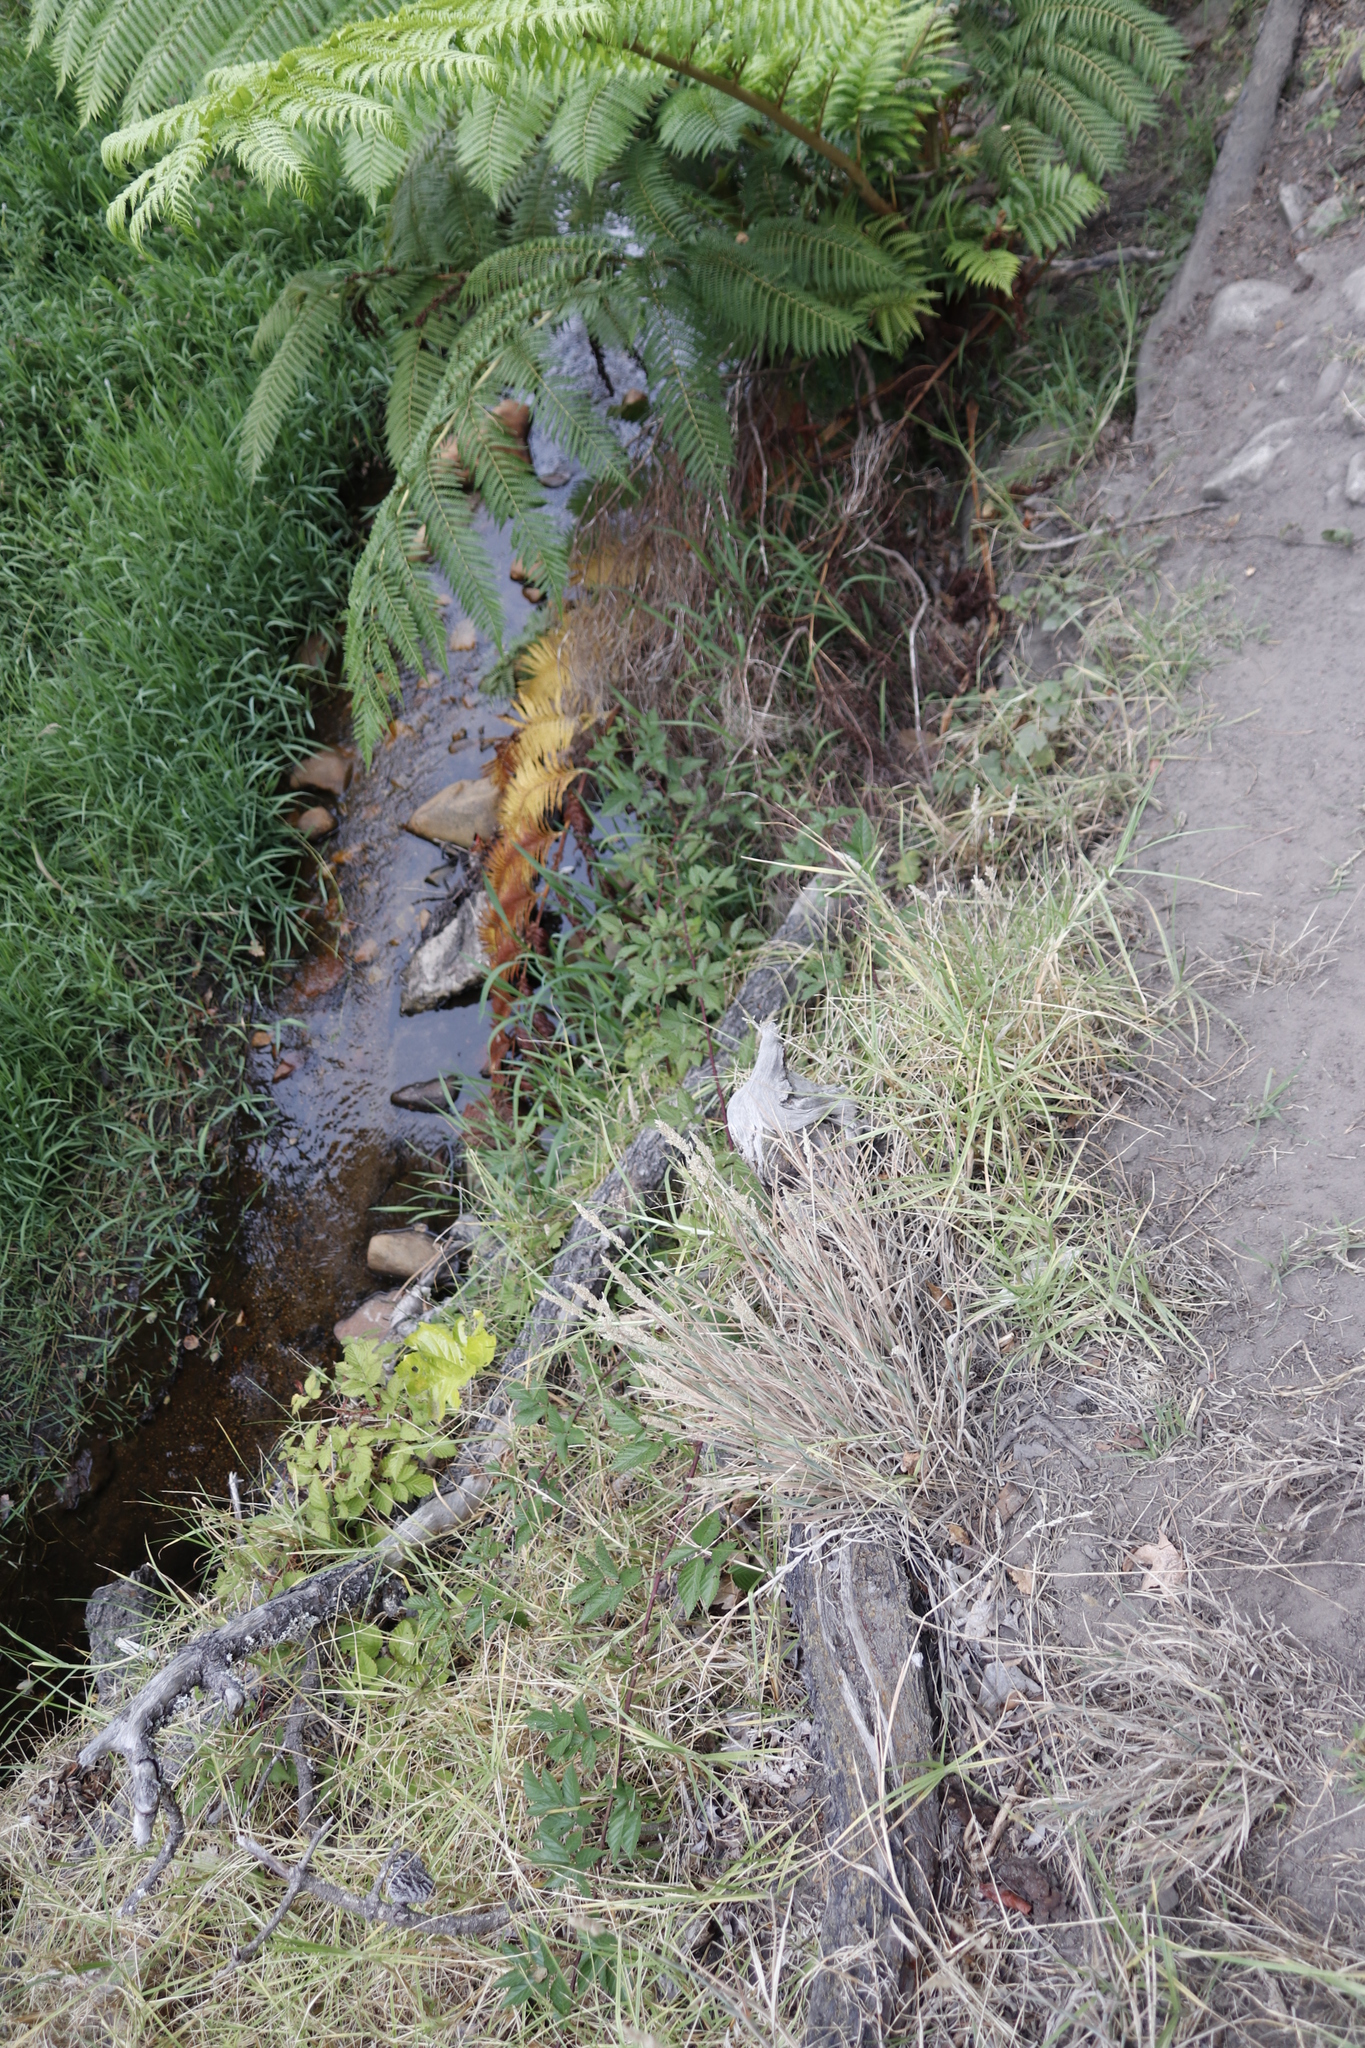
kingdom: Plantae
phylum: Tracheophyta
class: Liliopsida
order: Poales
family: Poaceae
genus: Cenchrus
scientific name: Cenchrus clandestinus
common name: Kikuyugrass
